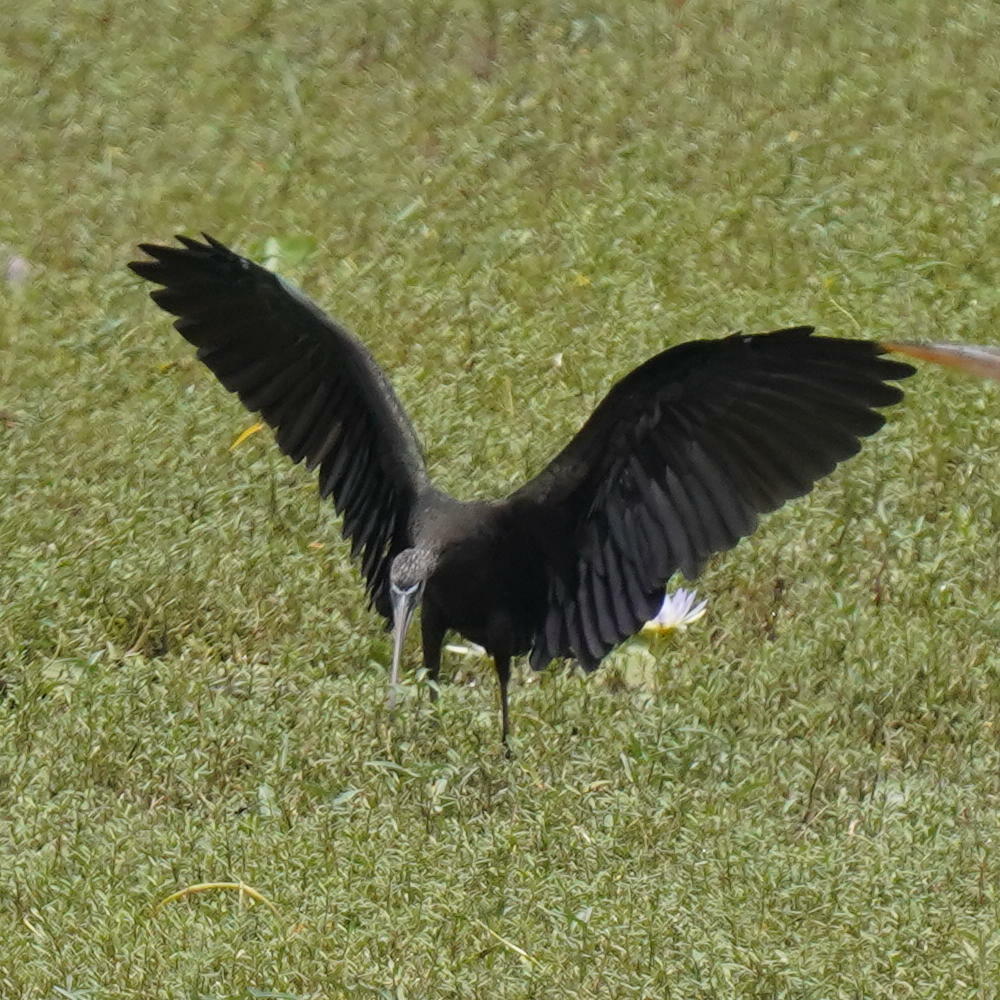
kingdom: Animalia
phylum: Chordata
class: Aves
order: Pelecaniformes
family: Threskiornithidae
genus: Plegadis
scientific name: Plegadis falcinellus
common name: Glossy ibis
